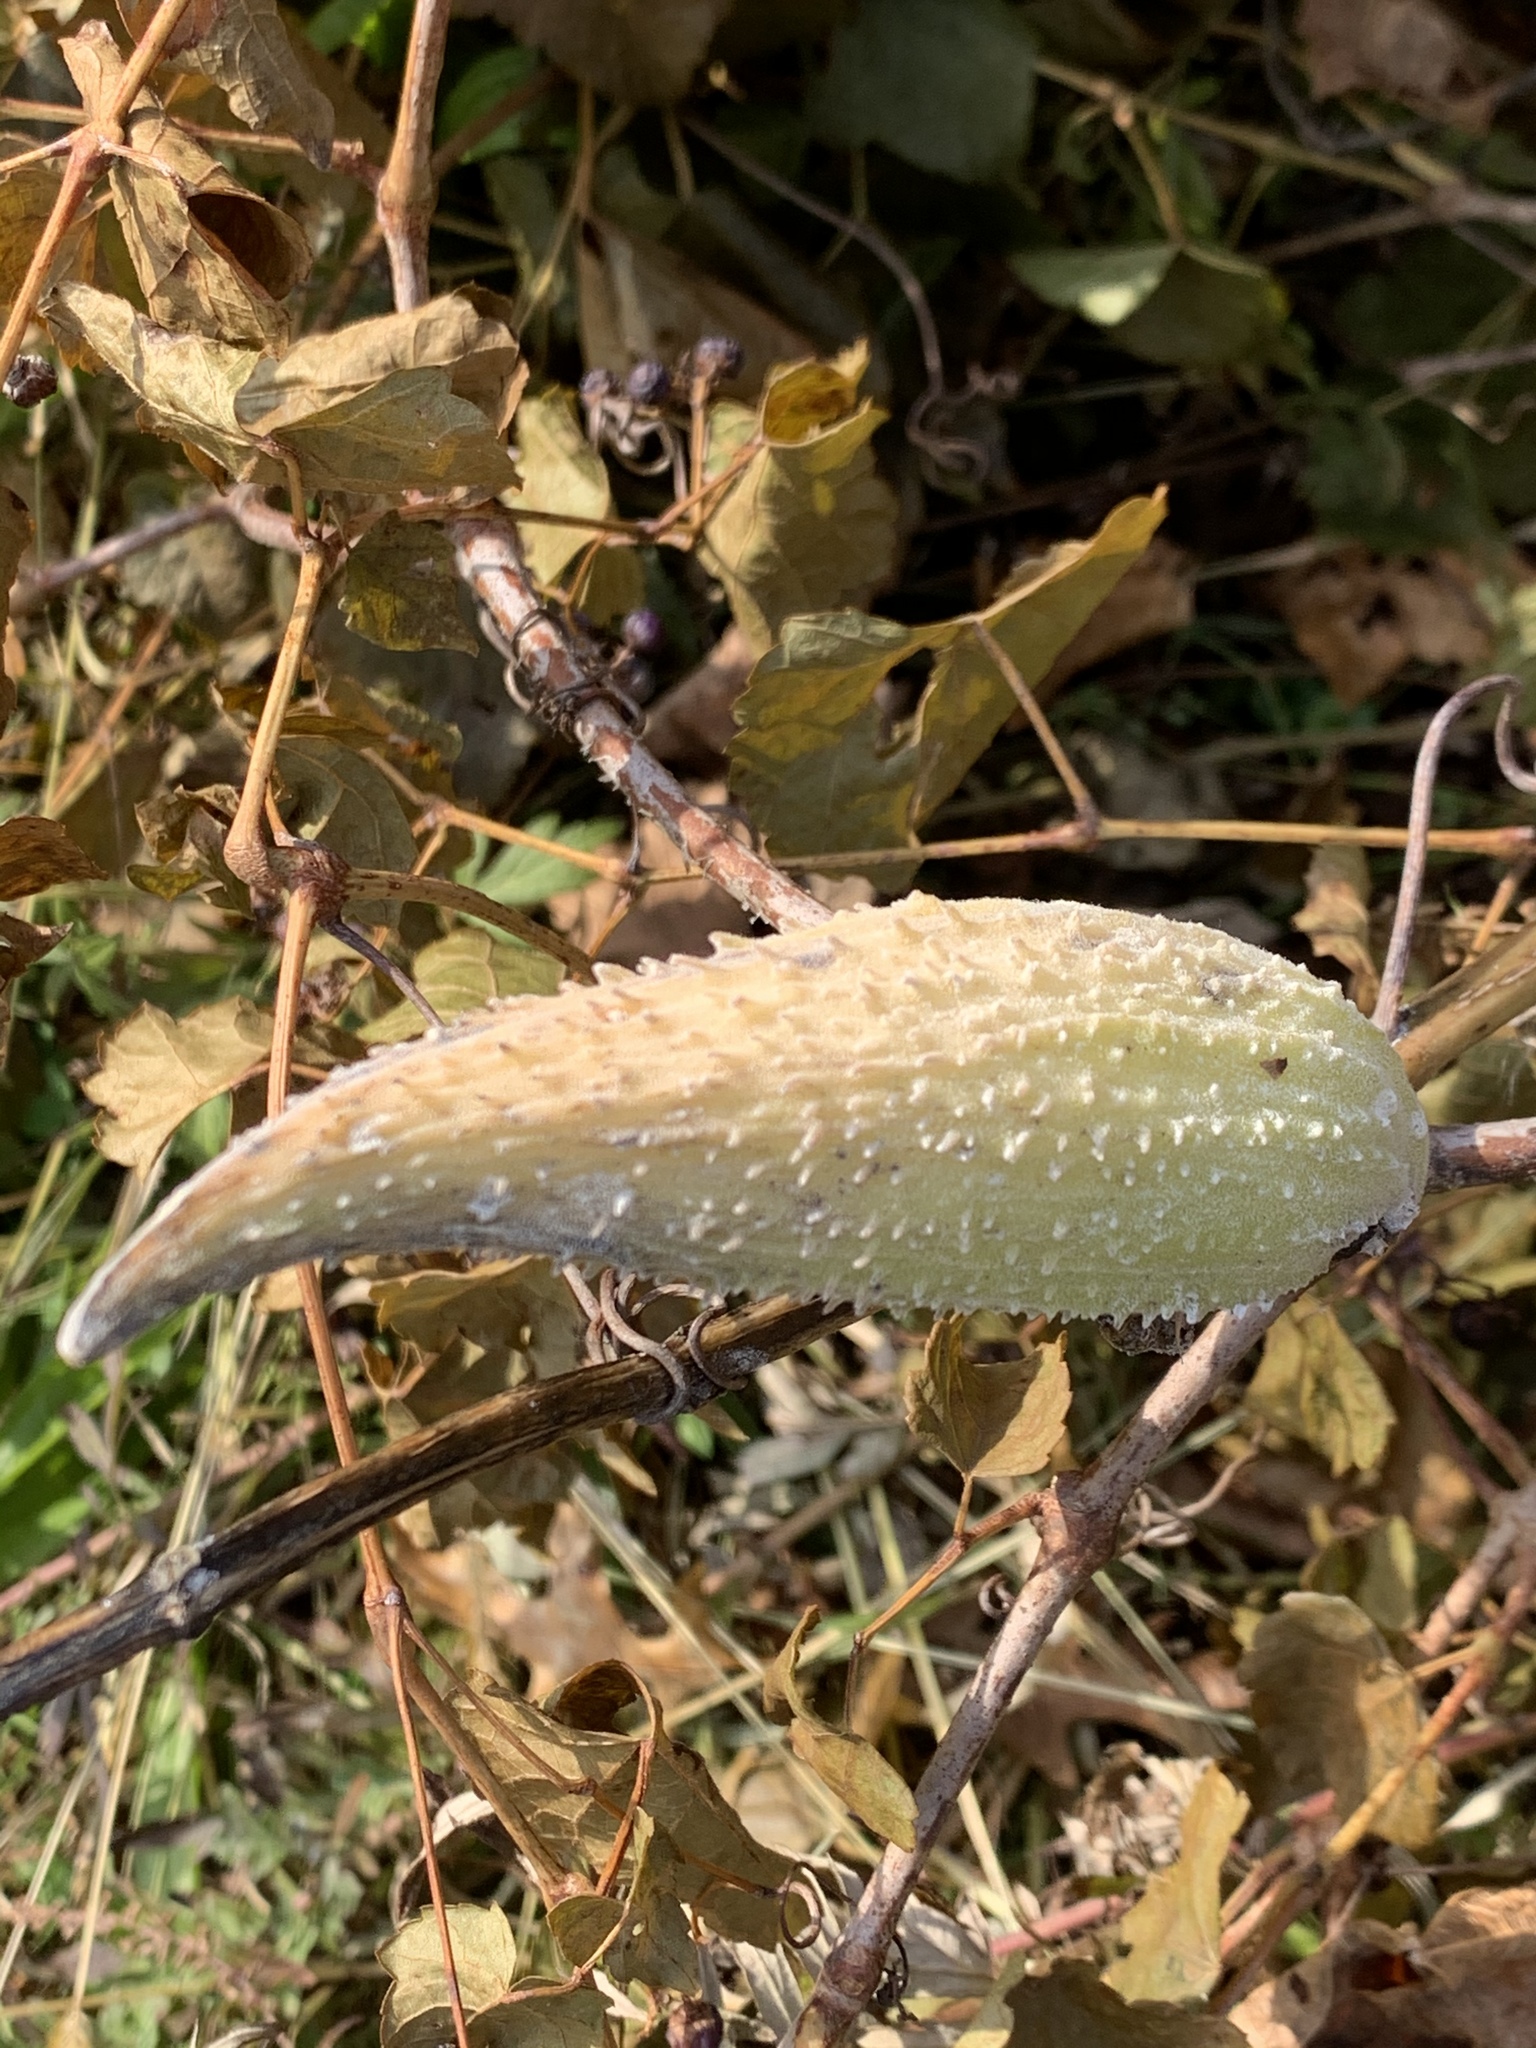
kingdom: Plantae
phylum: Tracheophyta
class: Magnoliopsida
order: Gentianales
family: Apocynaceae
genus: Asclepias
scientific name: Asclepias syriaca
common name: Common milkweed
